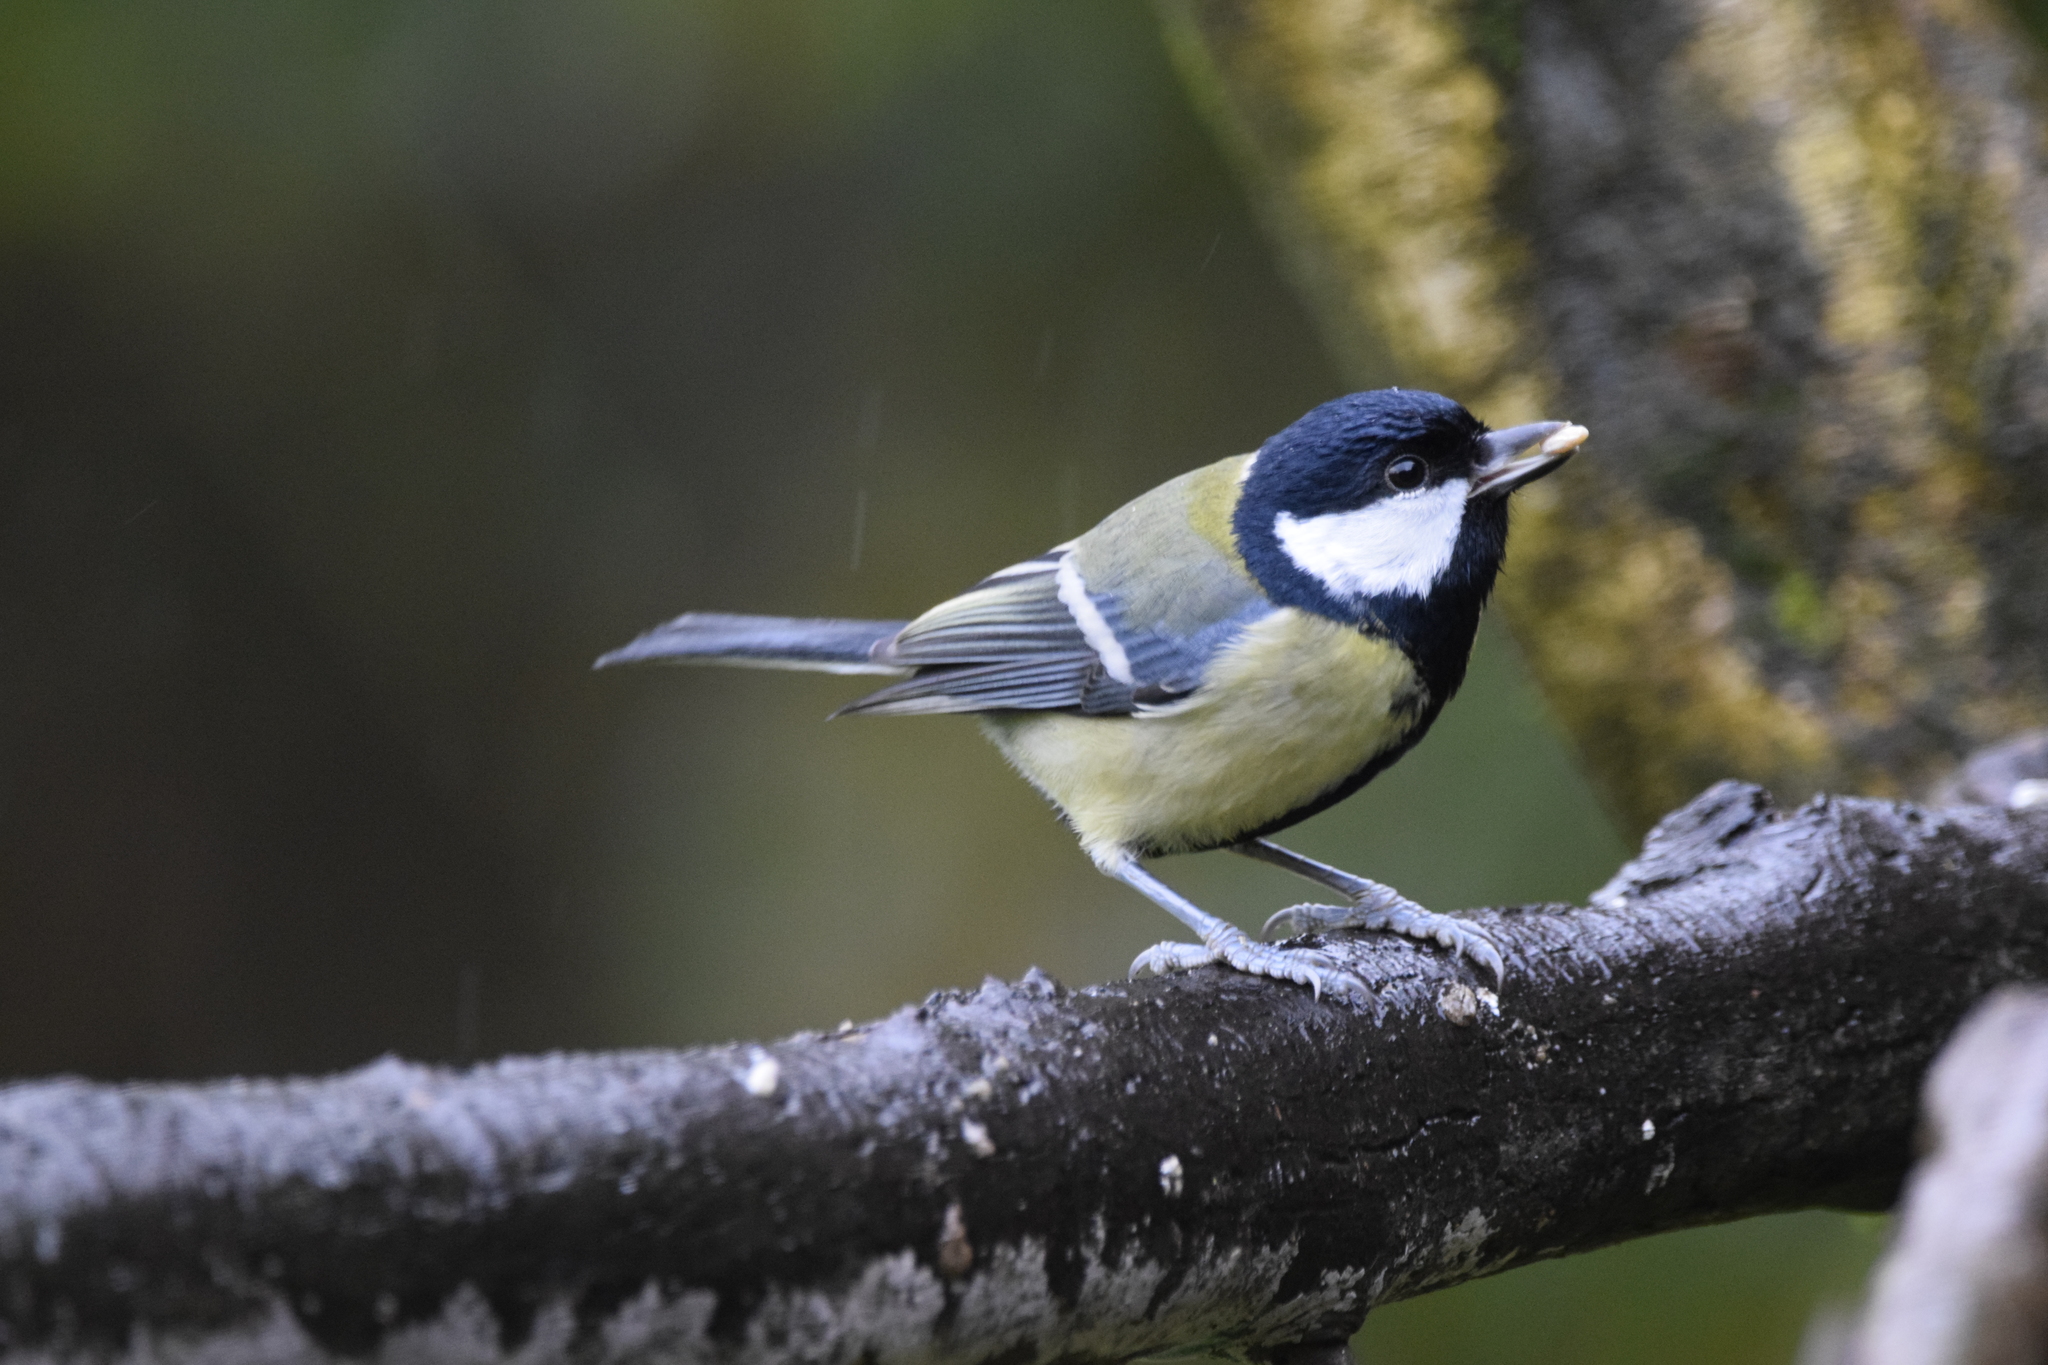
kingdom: Animalia
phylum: Chordata
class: Aves
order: Passeriformes
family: Paridae
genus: Parus
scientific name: Parus major
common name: Great tit
